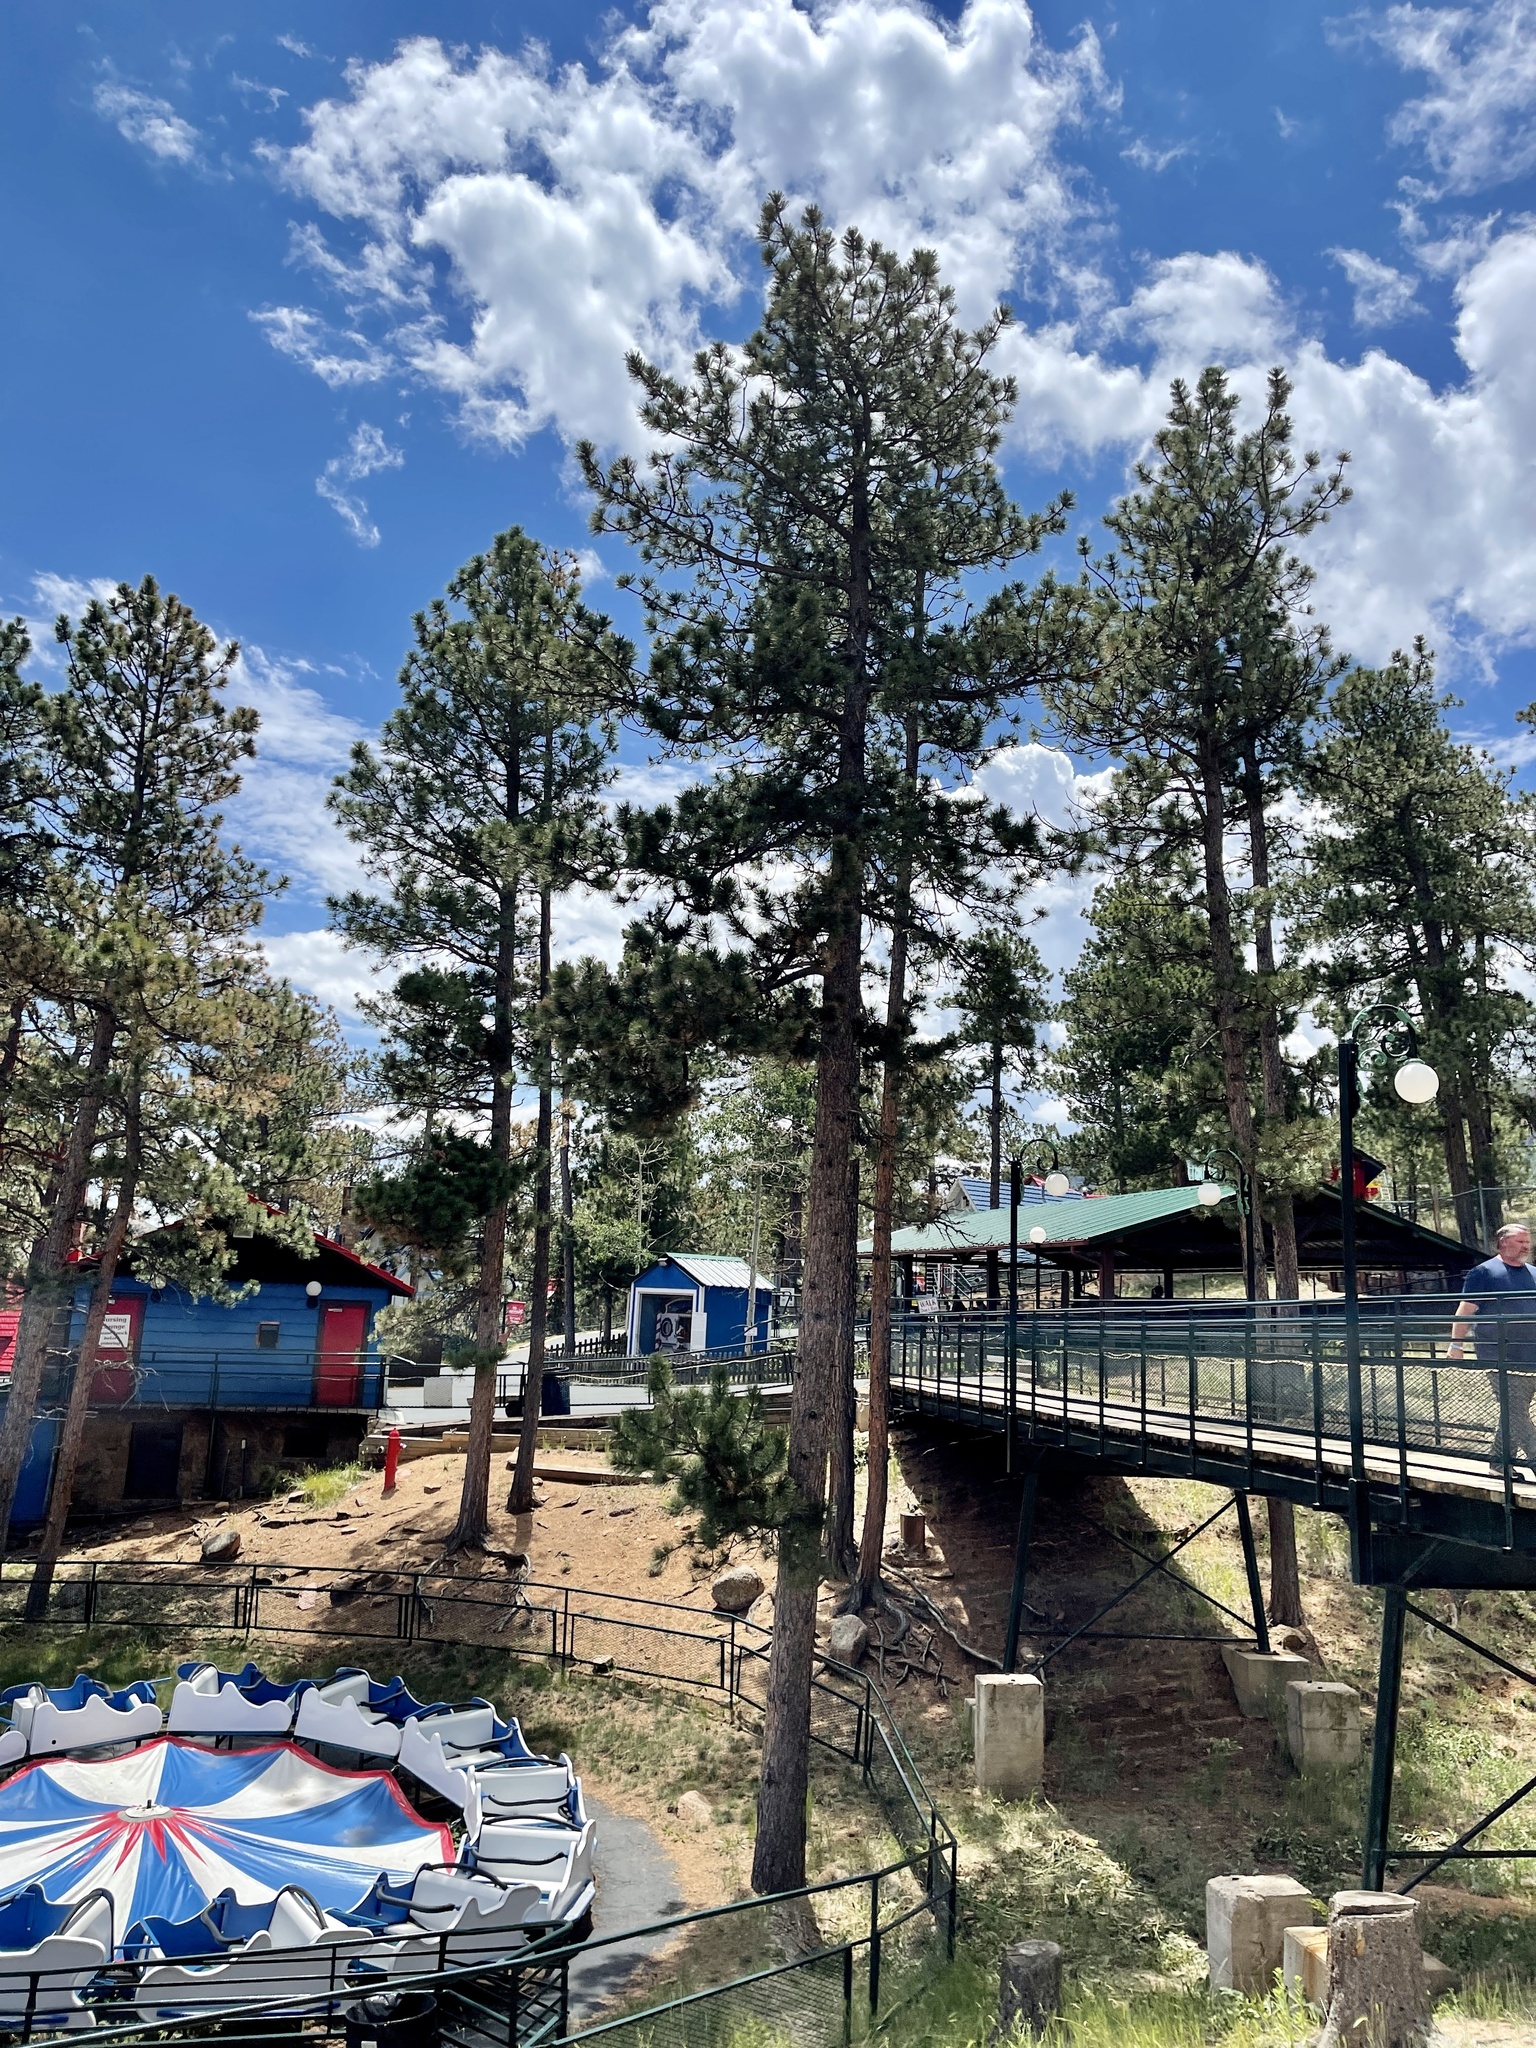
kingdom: Plantae
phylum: Tracheophyta
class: Pinopsida
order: Pinales
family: Pinaceae
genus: Pinus
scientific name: Pinus ponderosa
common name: Western yellow-pine
